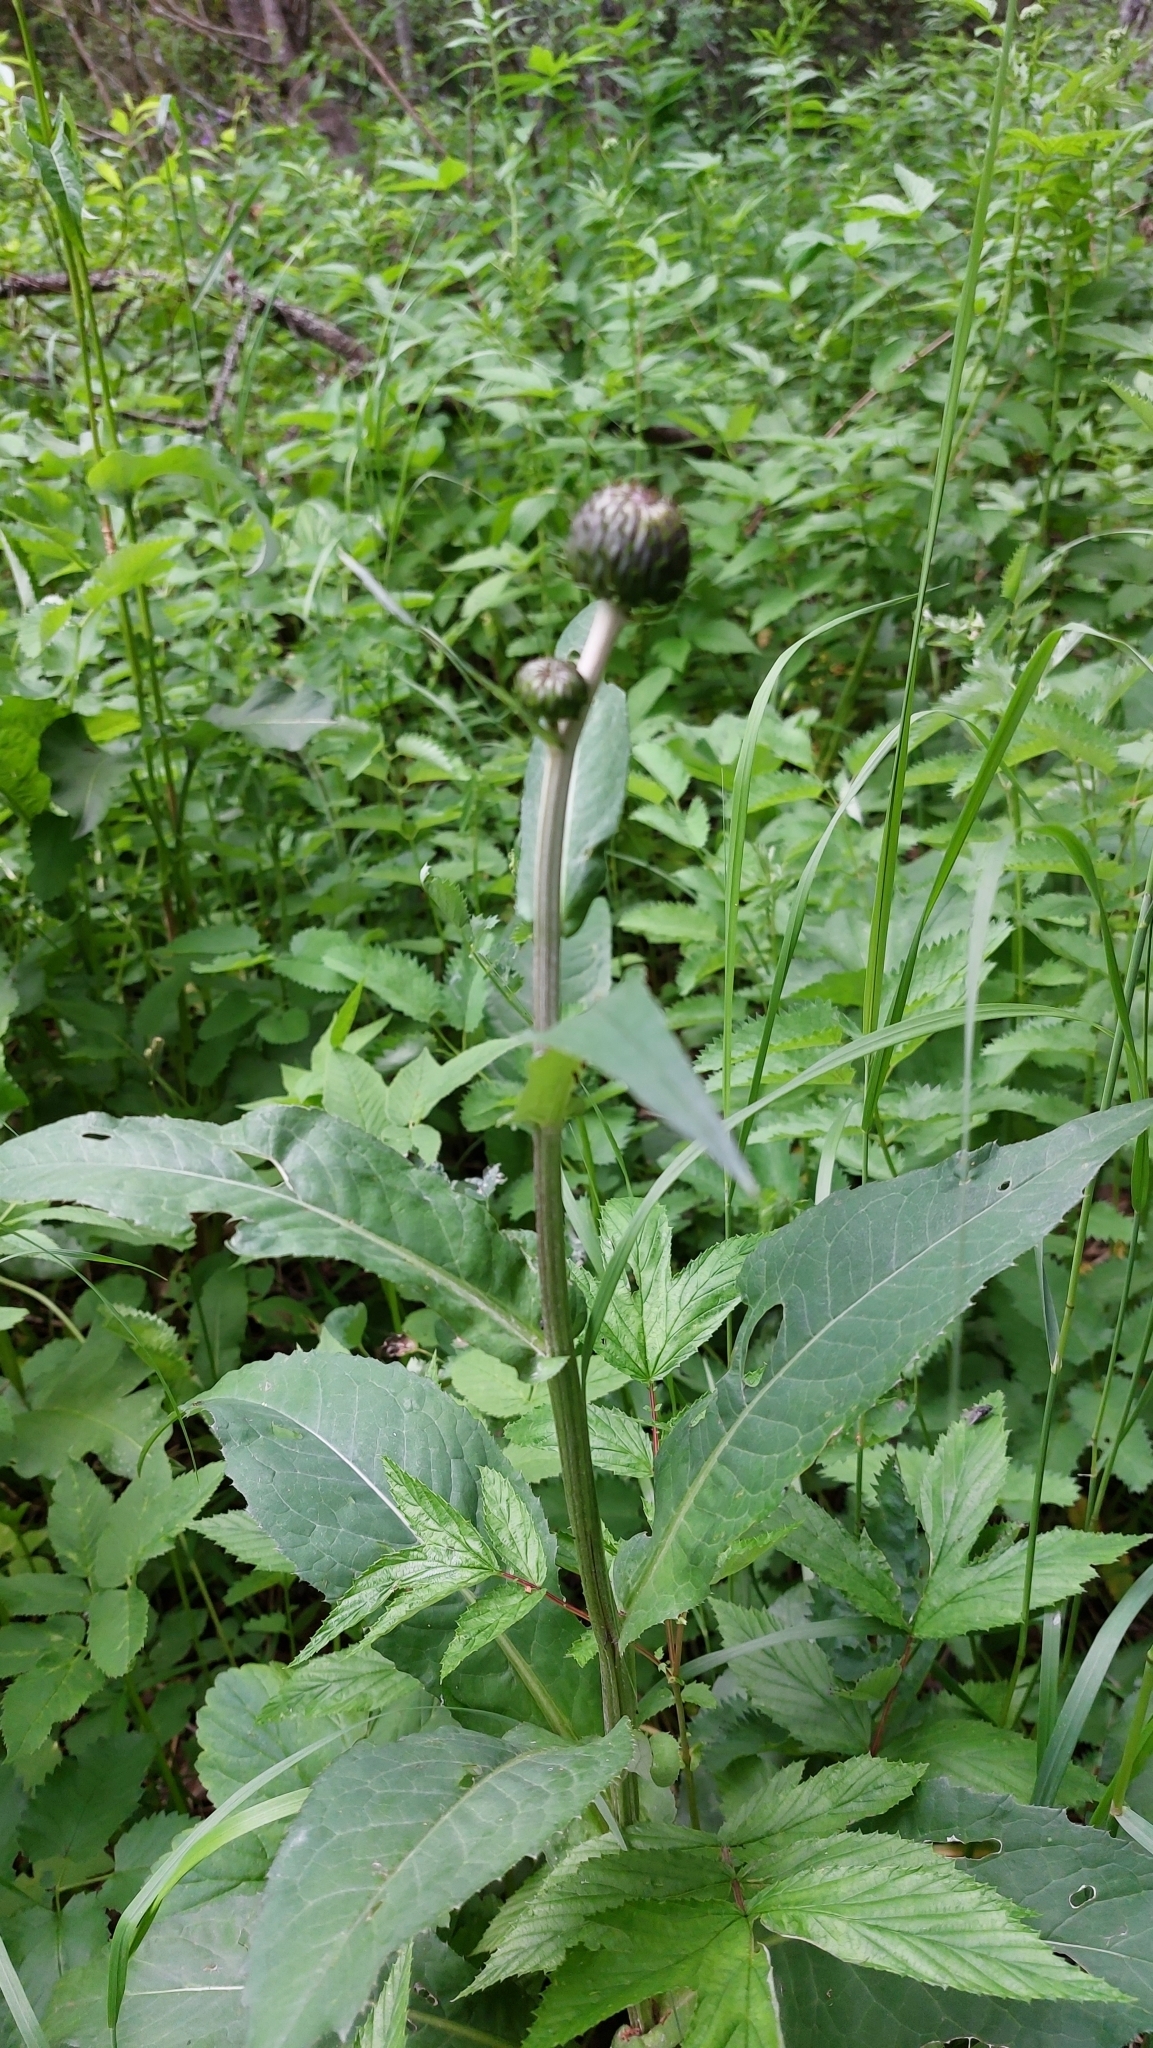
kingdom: Plantae
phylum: Tracheophyta
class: Magnoliopsida
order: Asterales
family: Asteraceae
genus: Cirsium
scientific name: Cirsium heterophyllum
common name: Melancholy thistle
